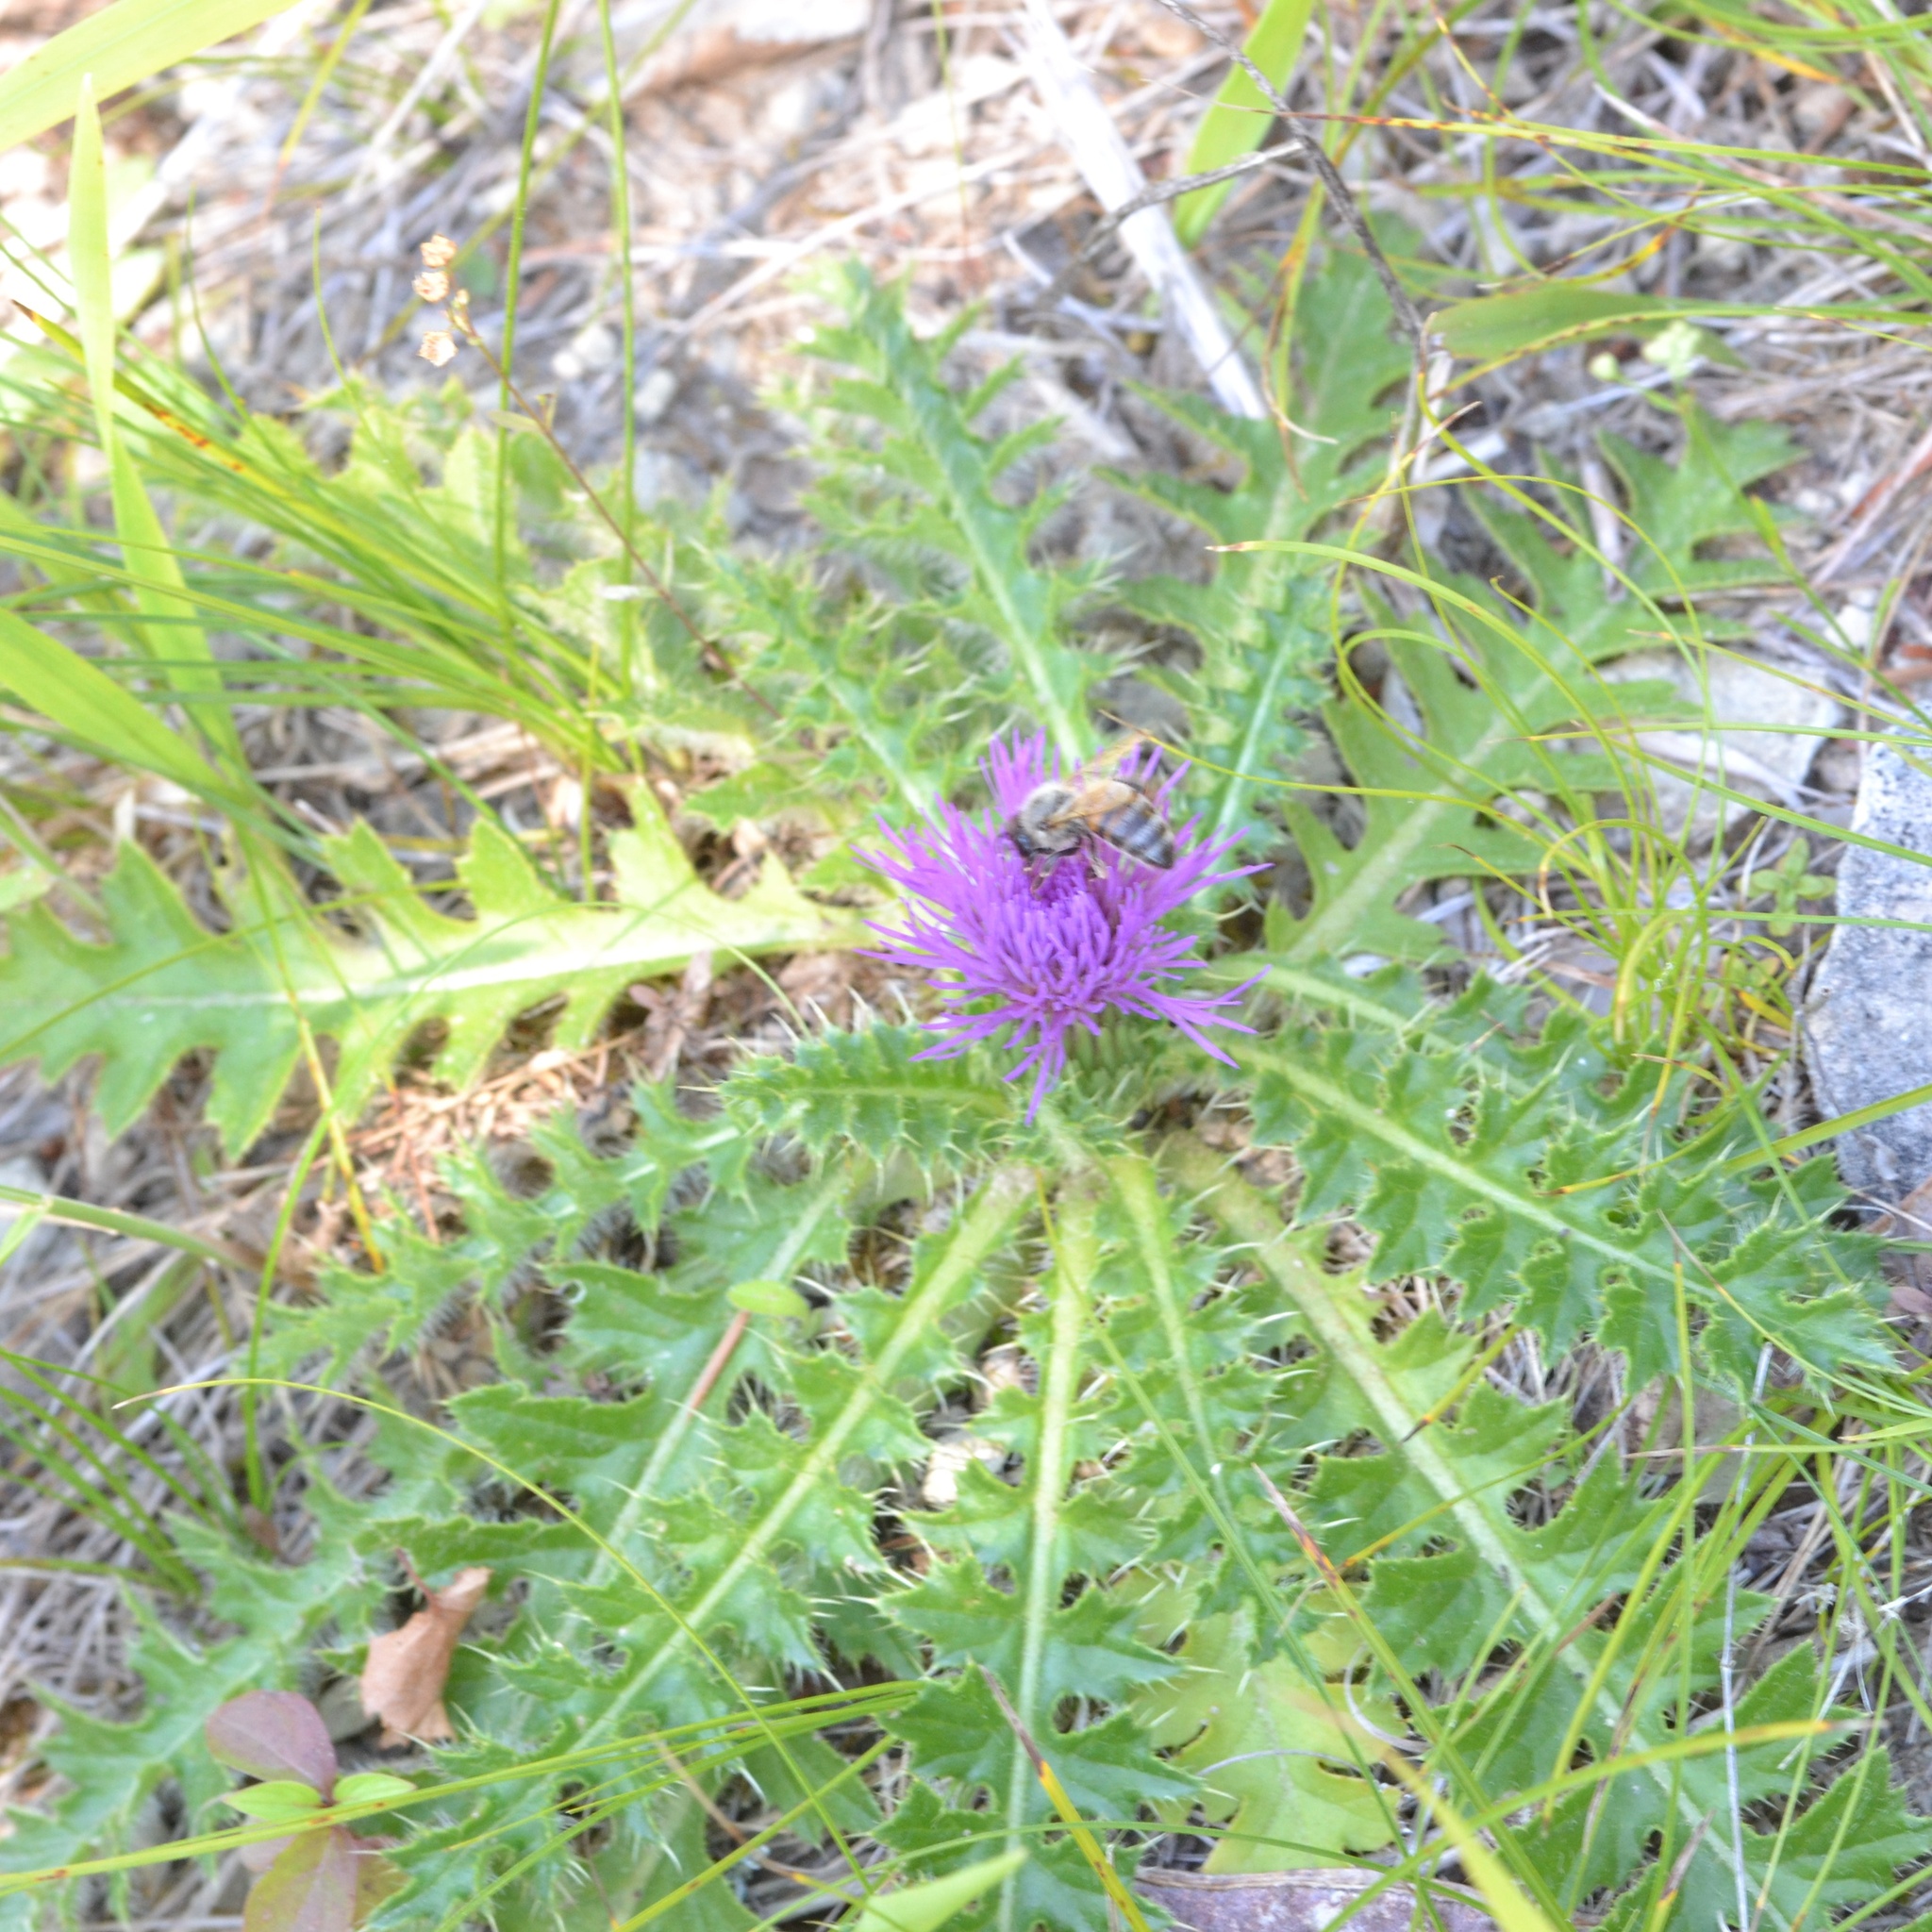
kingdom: Plantae
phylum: Tracheophyta
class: Magnoliopsida
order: Asterales
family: Asteraceae
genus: Cirsium
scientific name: Cirsium acaulon
